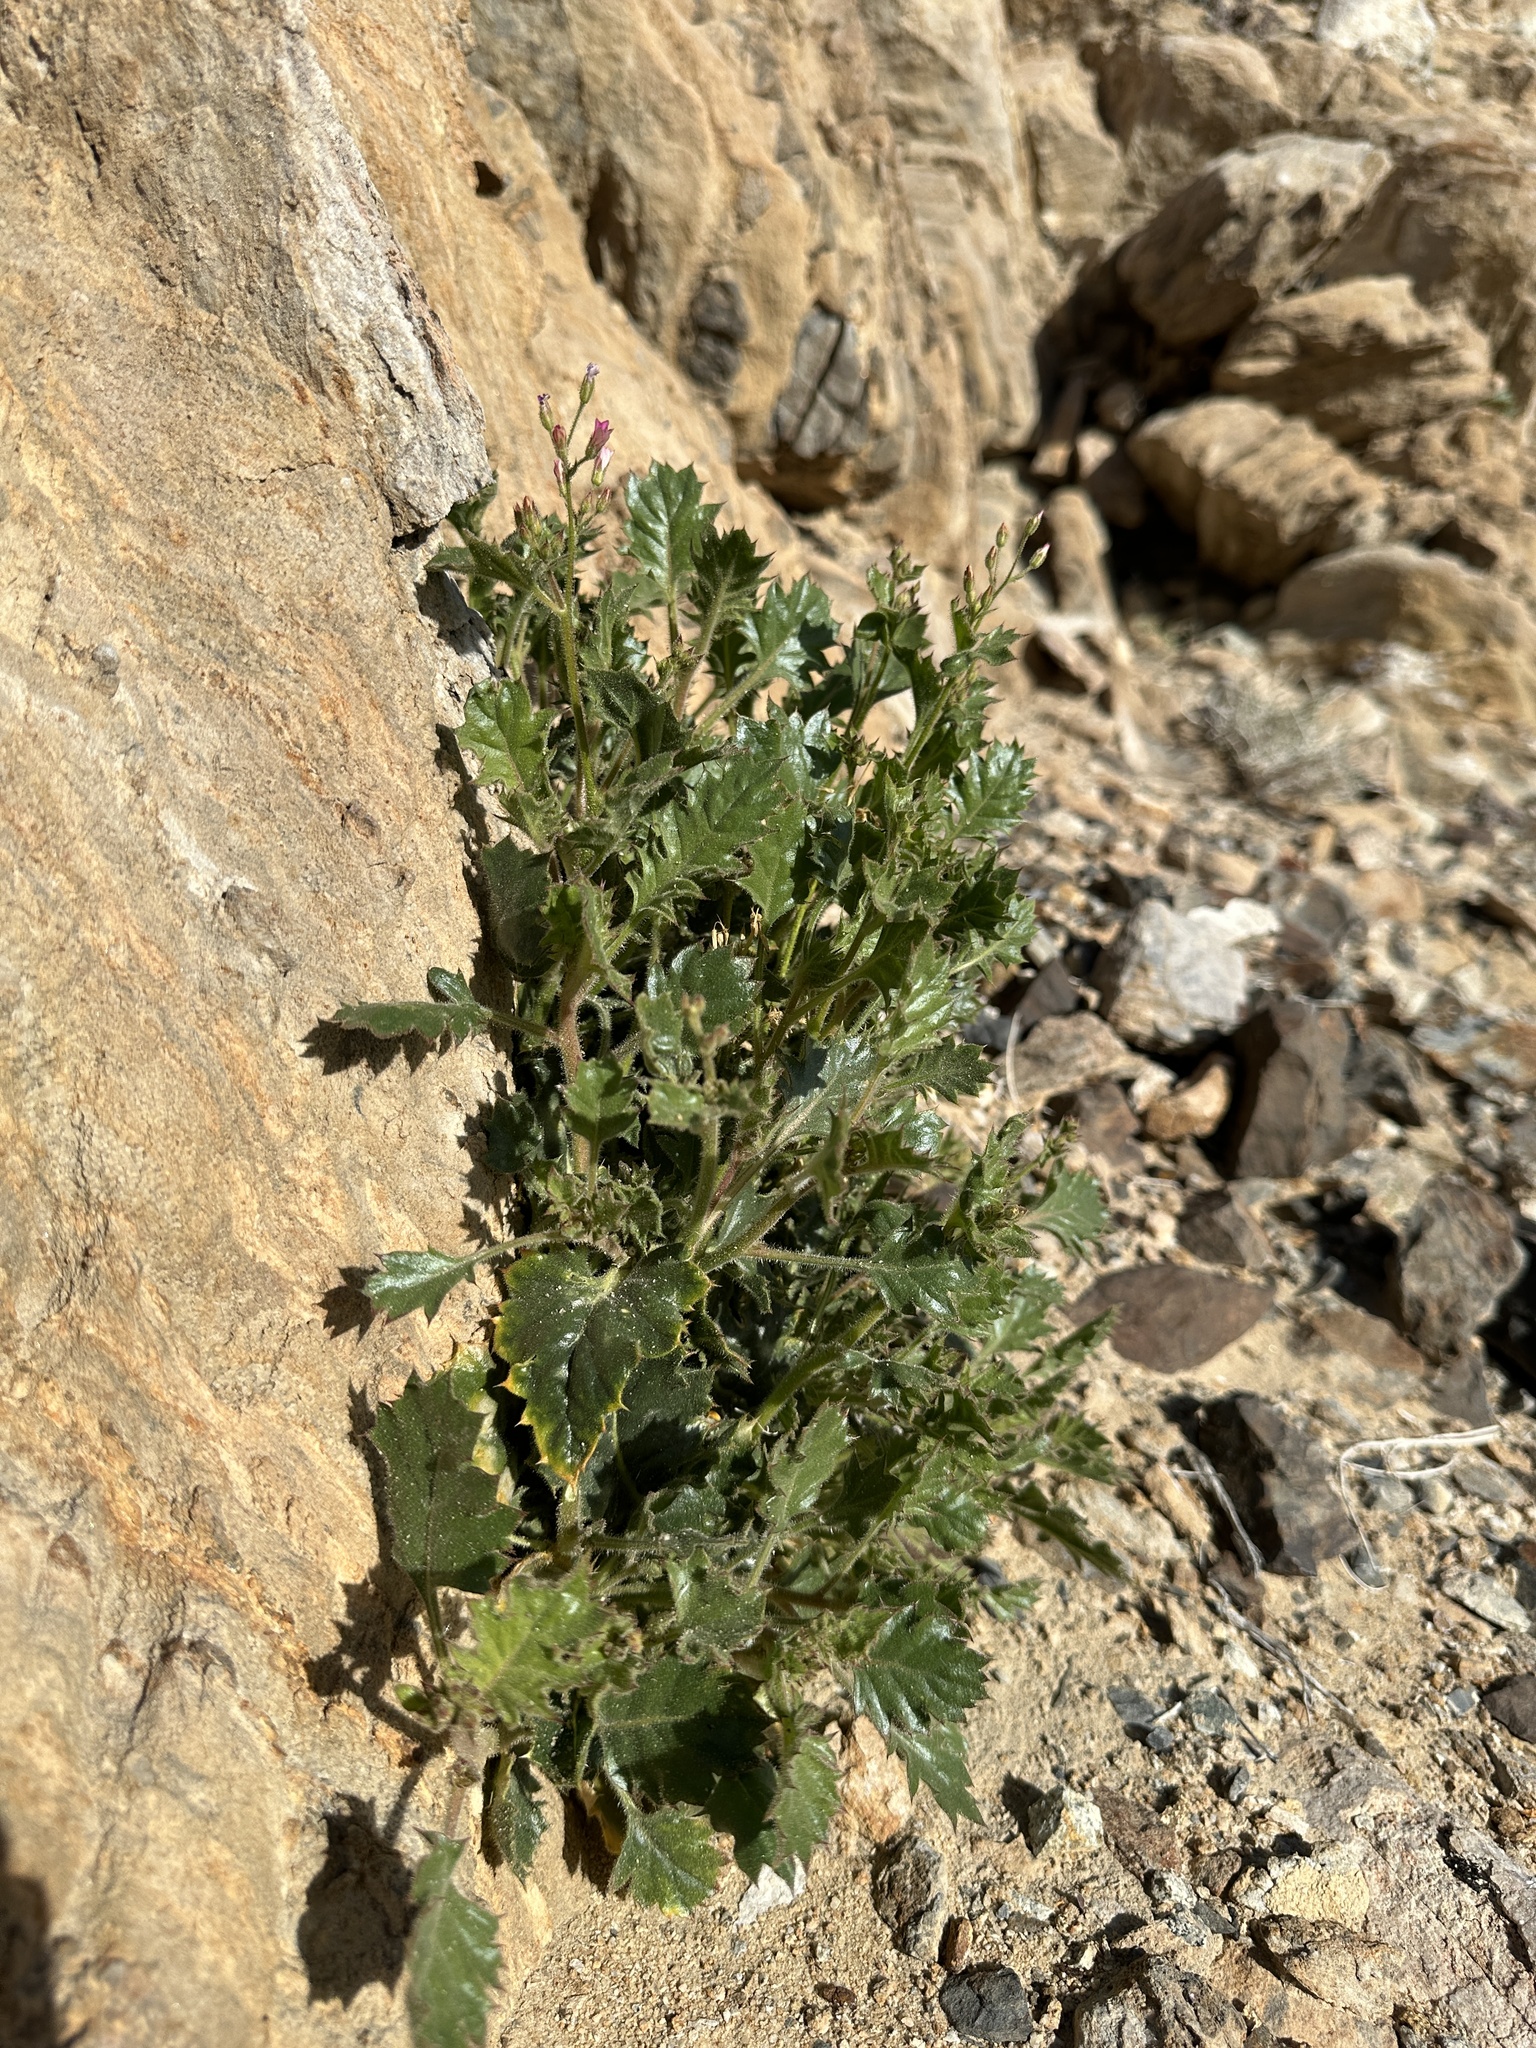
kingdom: Plantae
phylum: Tracheophyta
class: Magnoliopsida
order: Ericales
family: Polemoniaceae
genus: Aliciella
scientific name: Aliciella latifolia
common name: Broad-leaf gilia
